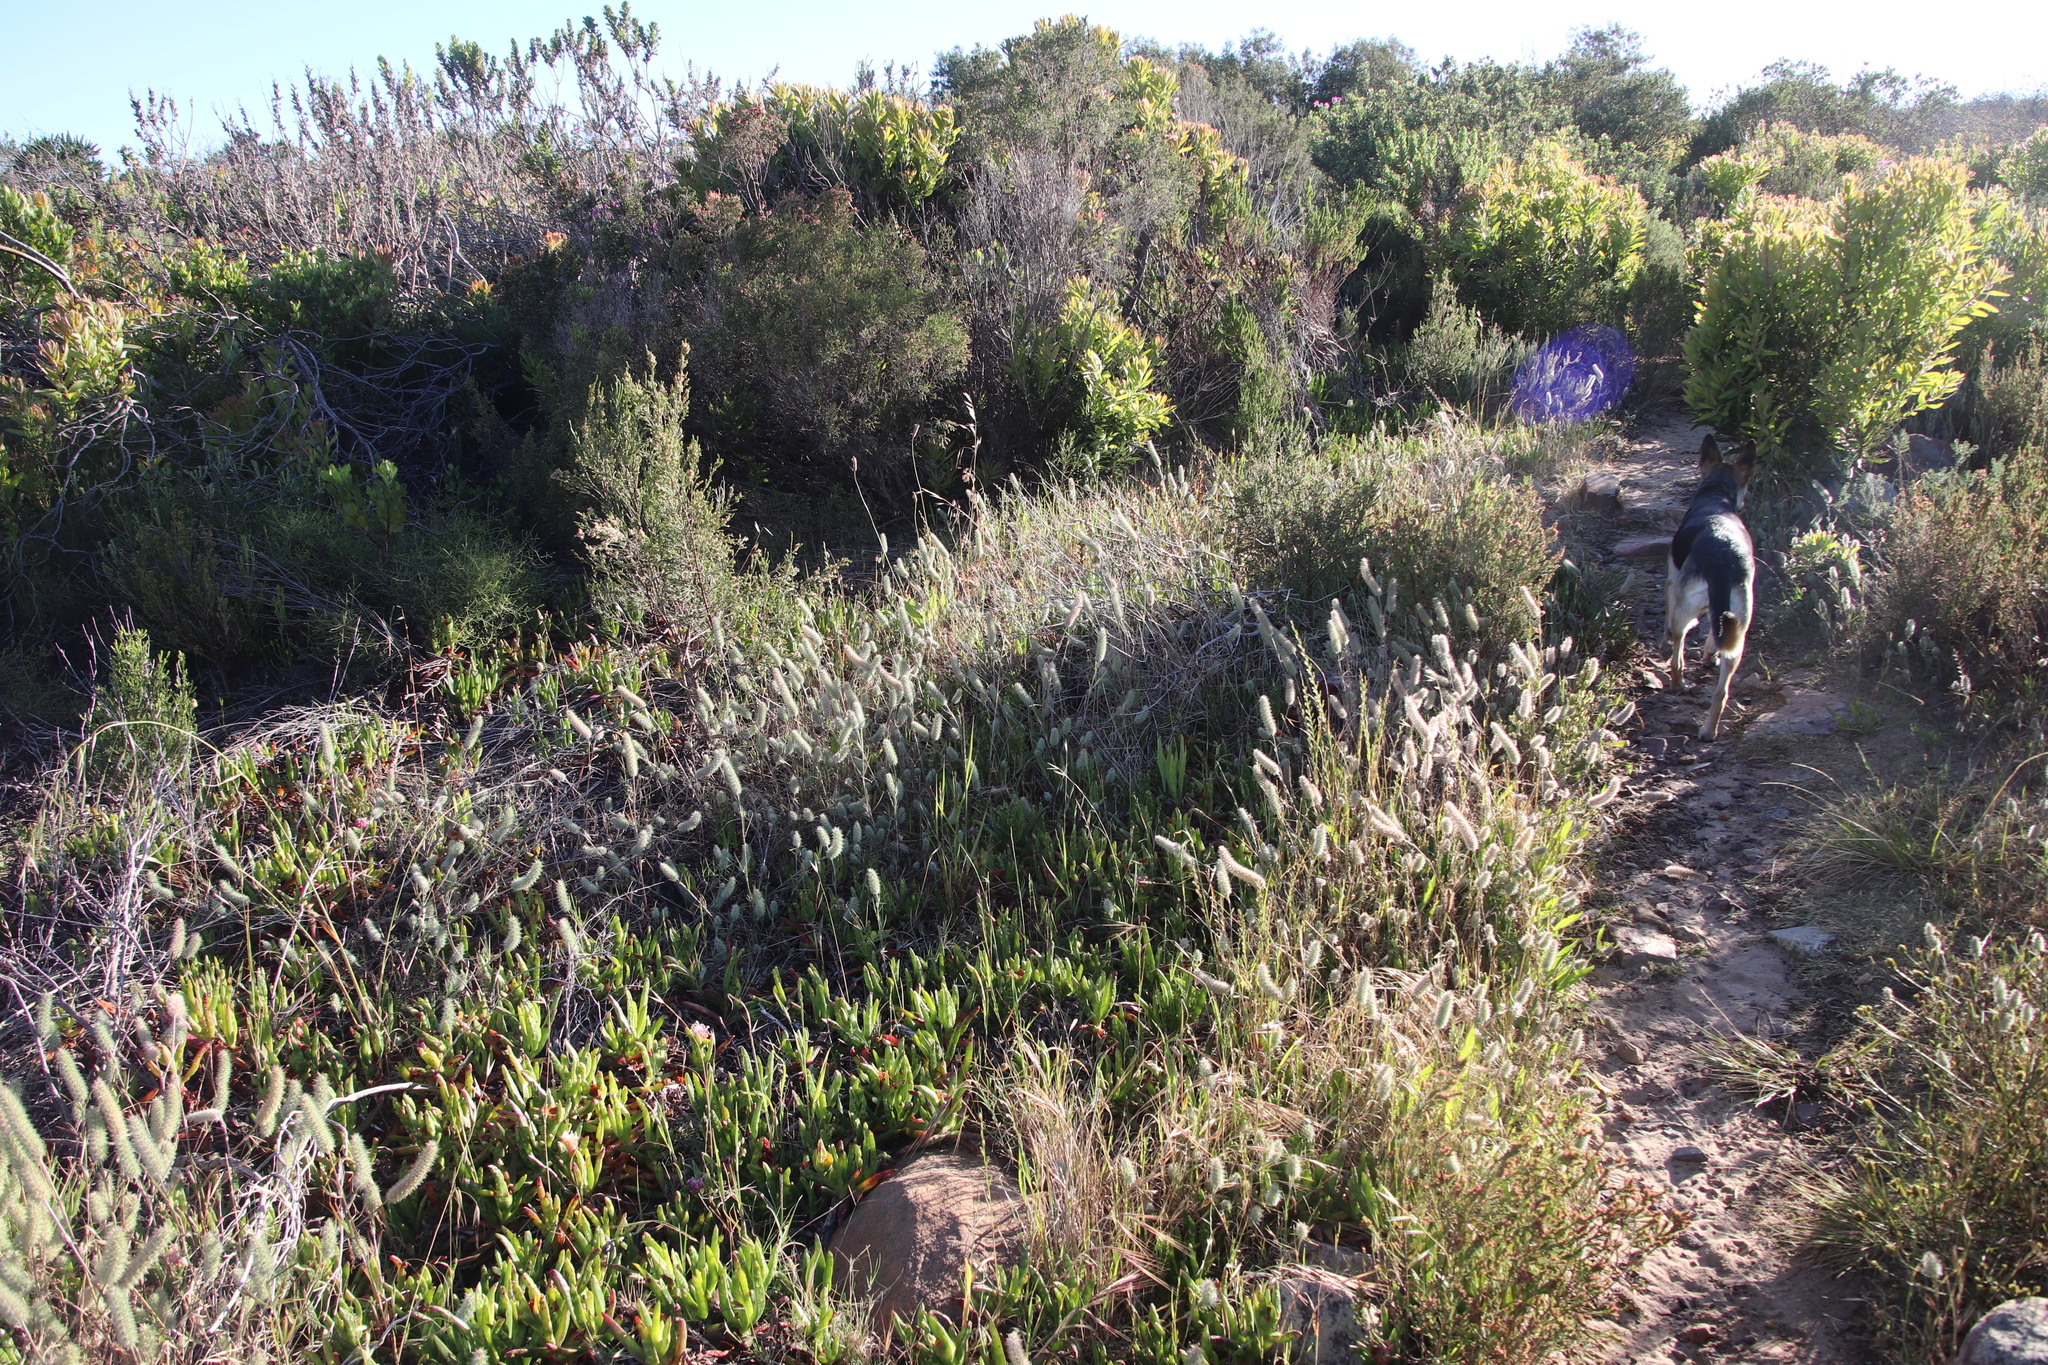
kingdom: Plantae
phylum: Tracheophyta
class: Magnoliopsida
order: Fabales
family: Fabaceae
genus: Trifolium
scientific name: Trifolium angustifolium
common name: Narrow clover
